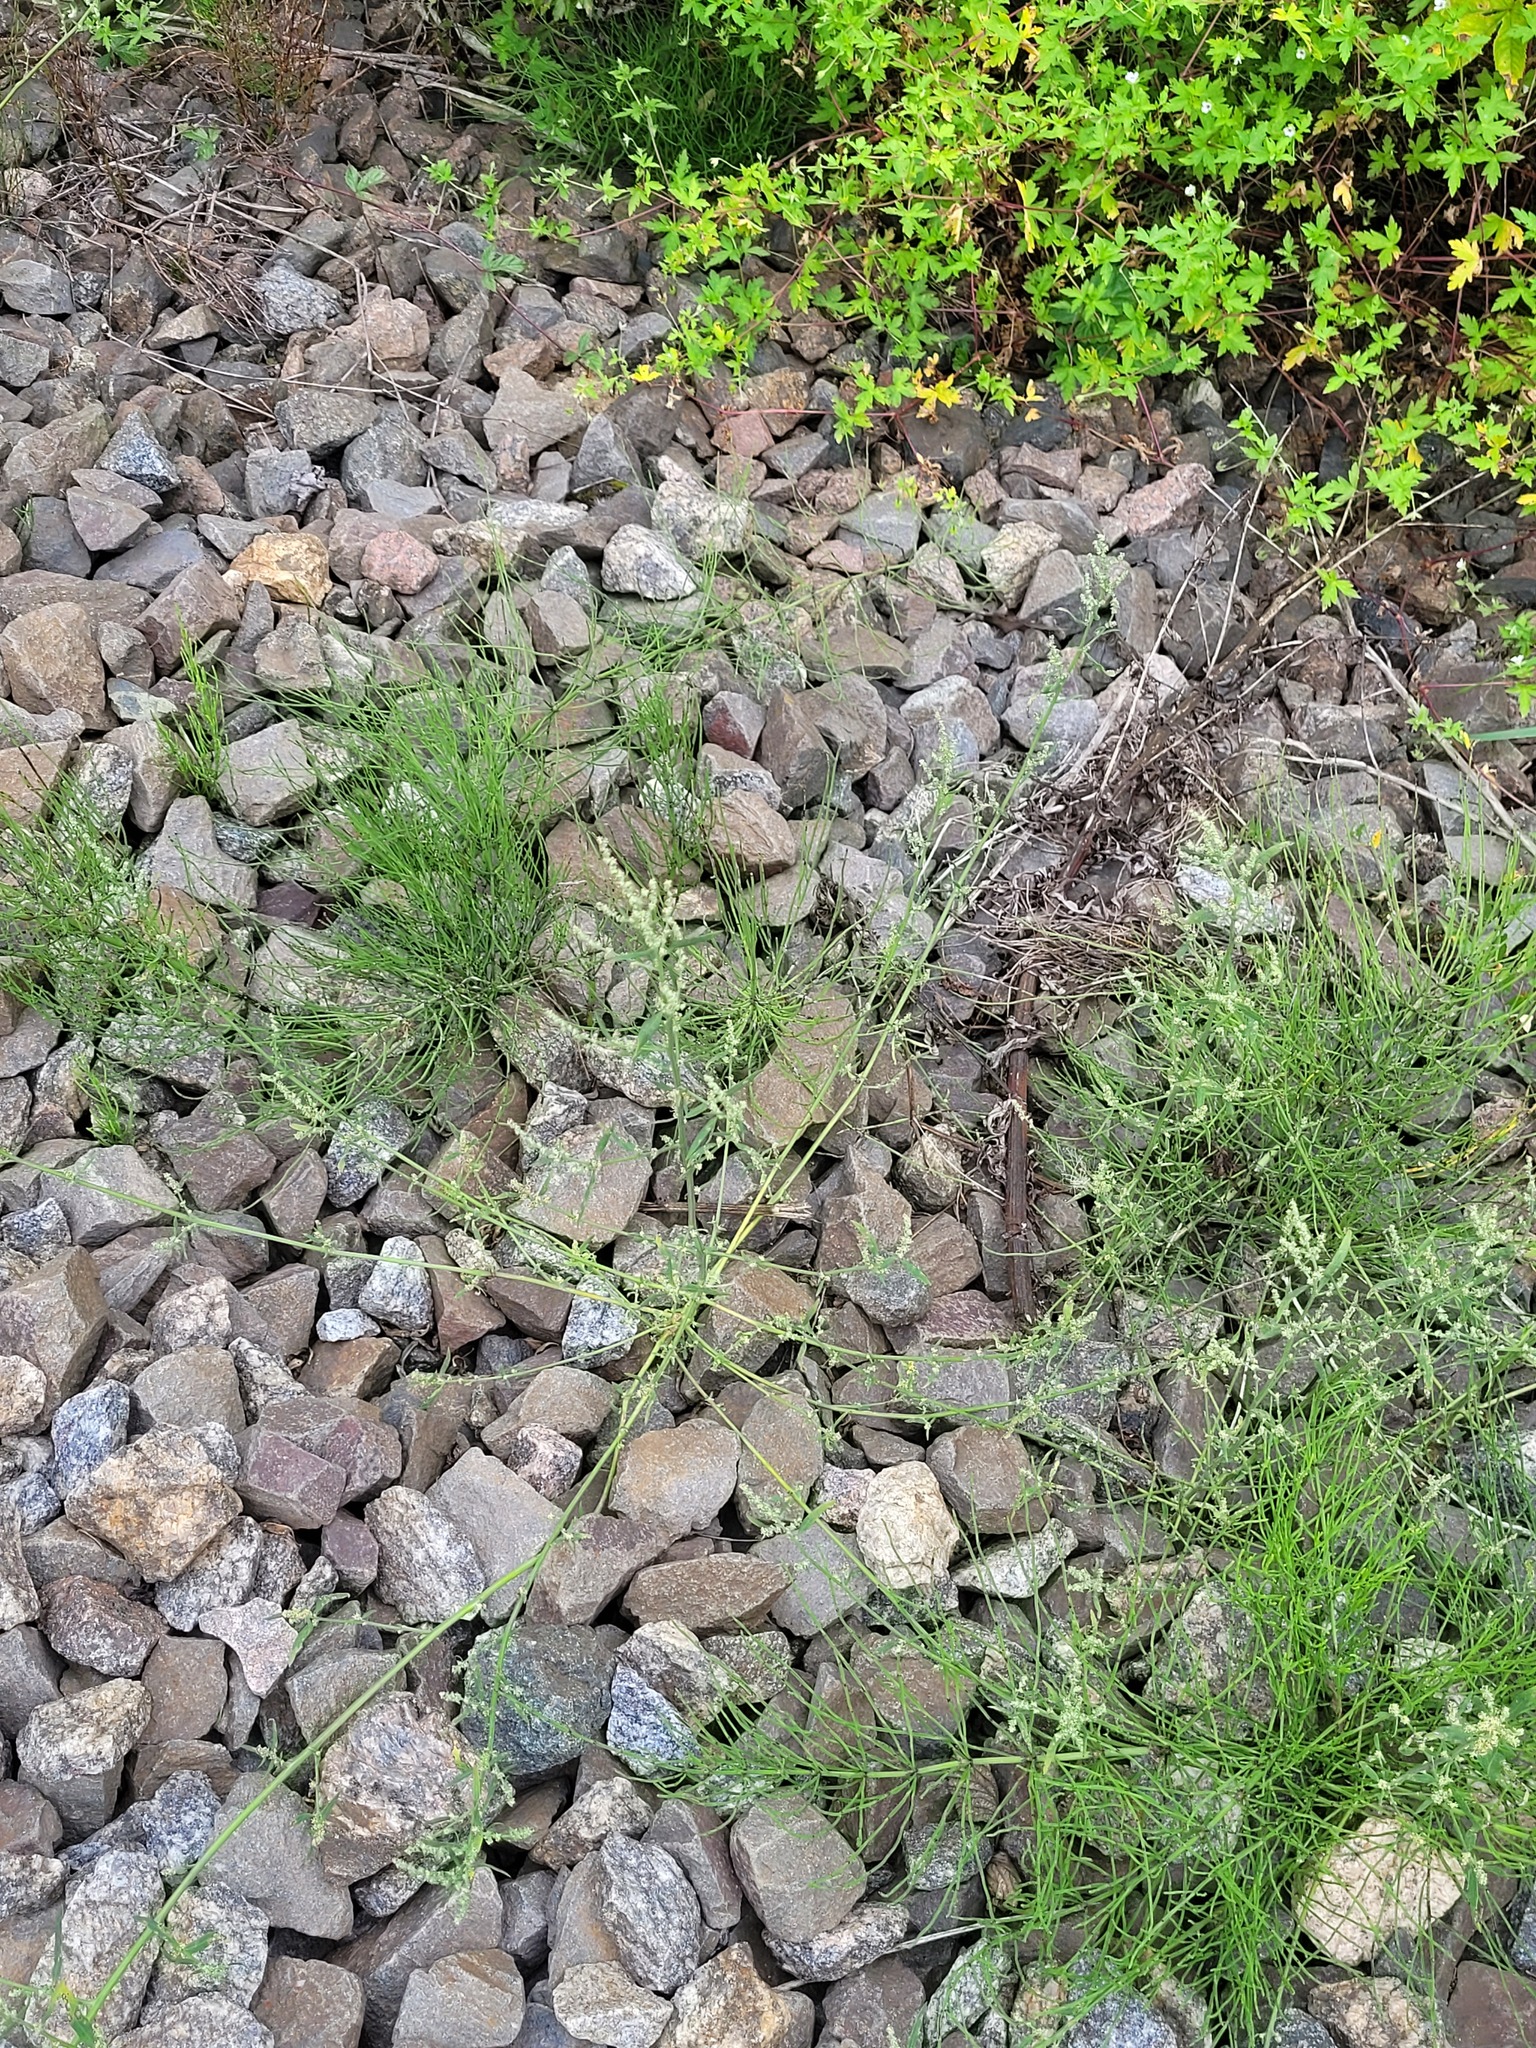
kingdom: Plantae
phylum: Tracheophyta
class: Magnoliopsida
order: Caryophyllales
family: Amaranthaceae
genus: Atriplex
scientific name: Atriplex patula
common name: Common orache
